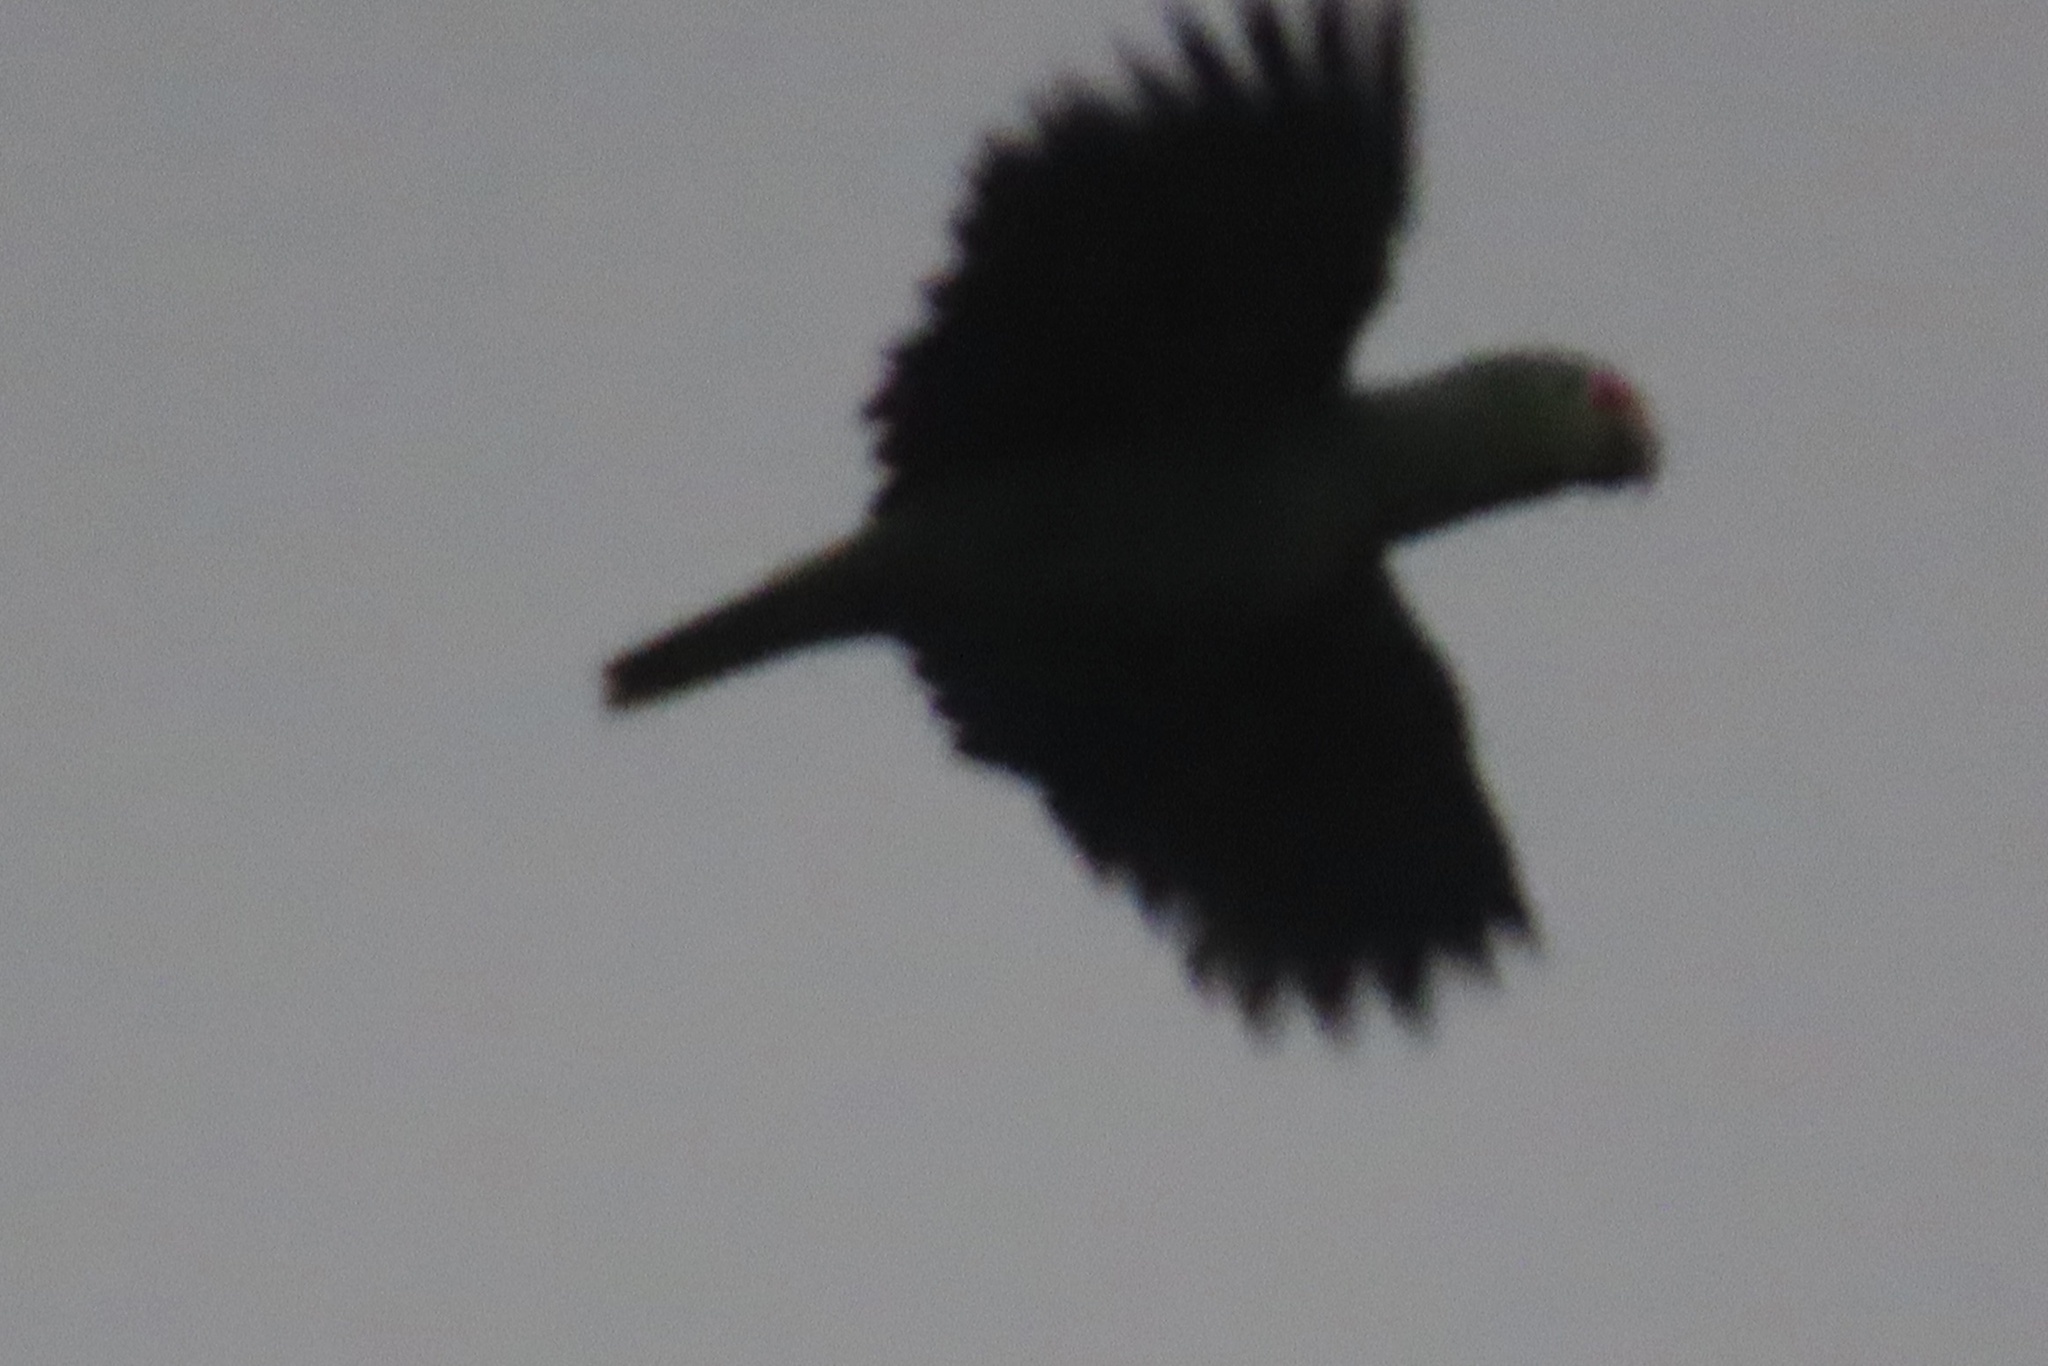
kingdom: Animalia
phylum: Chordata
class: Aves
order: Psittaciformes
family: Psittacidae
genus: Amazona
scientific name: Amazona autumnalis
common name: Red-lored amazon
